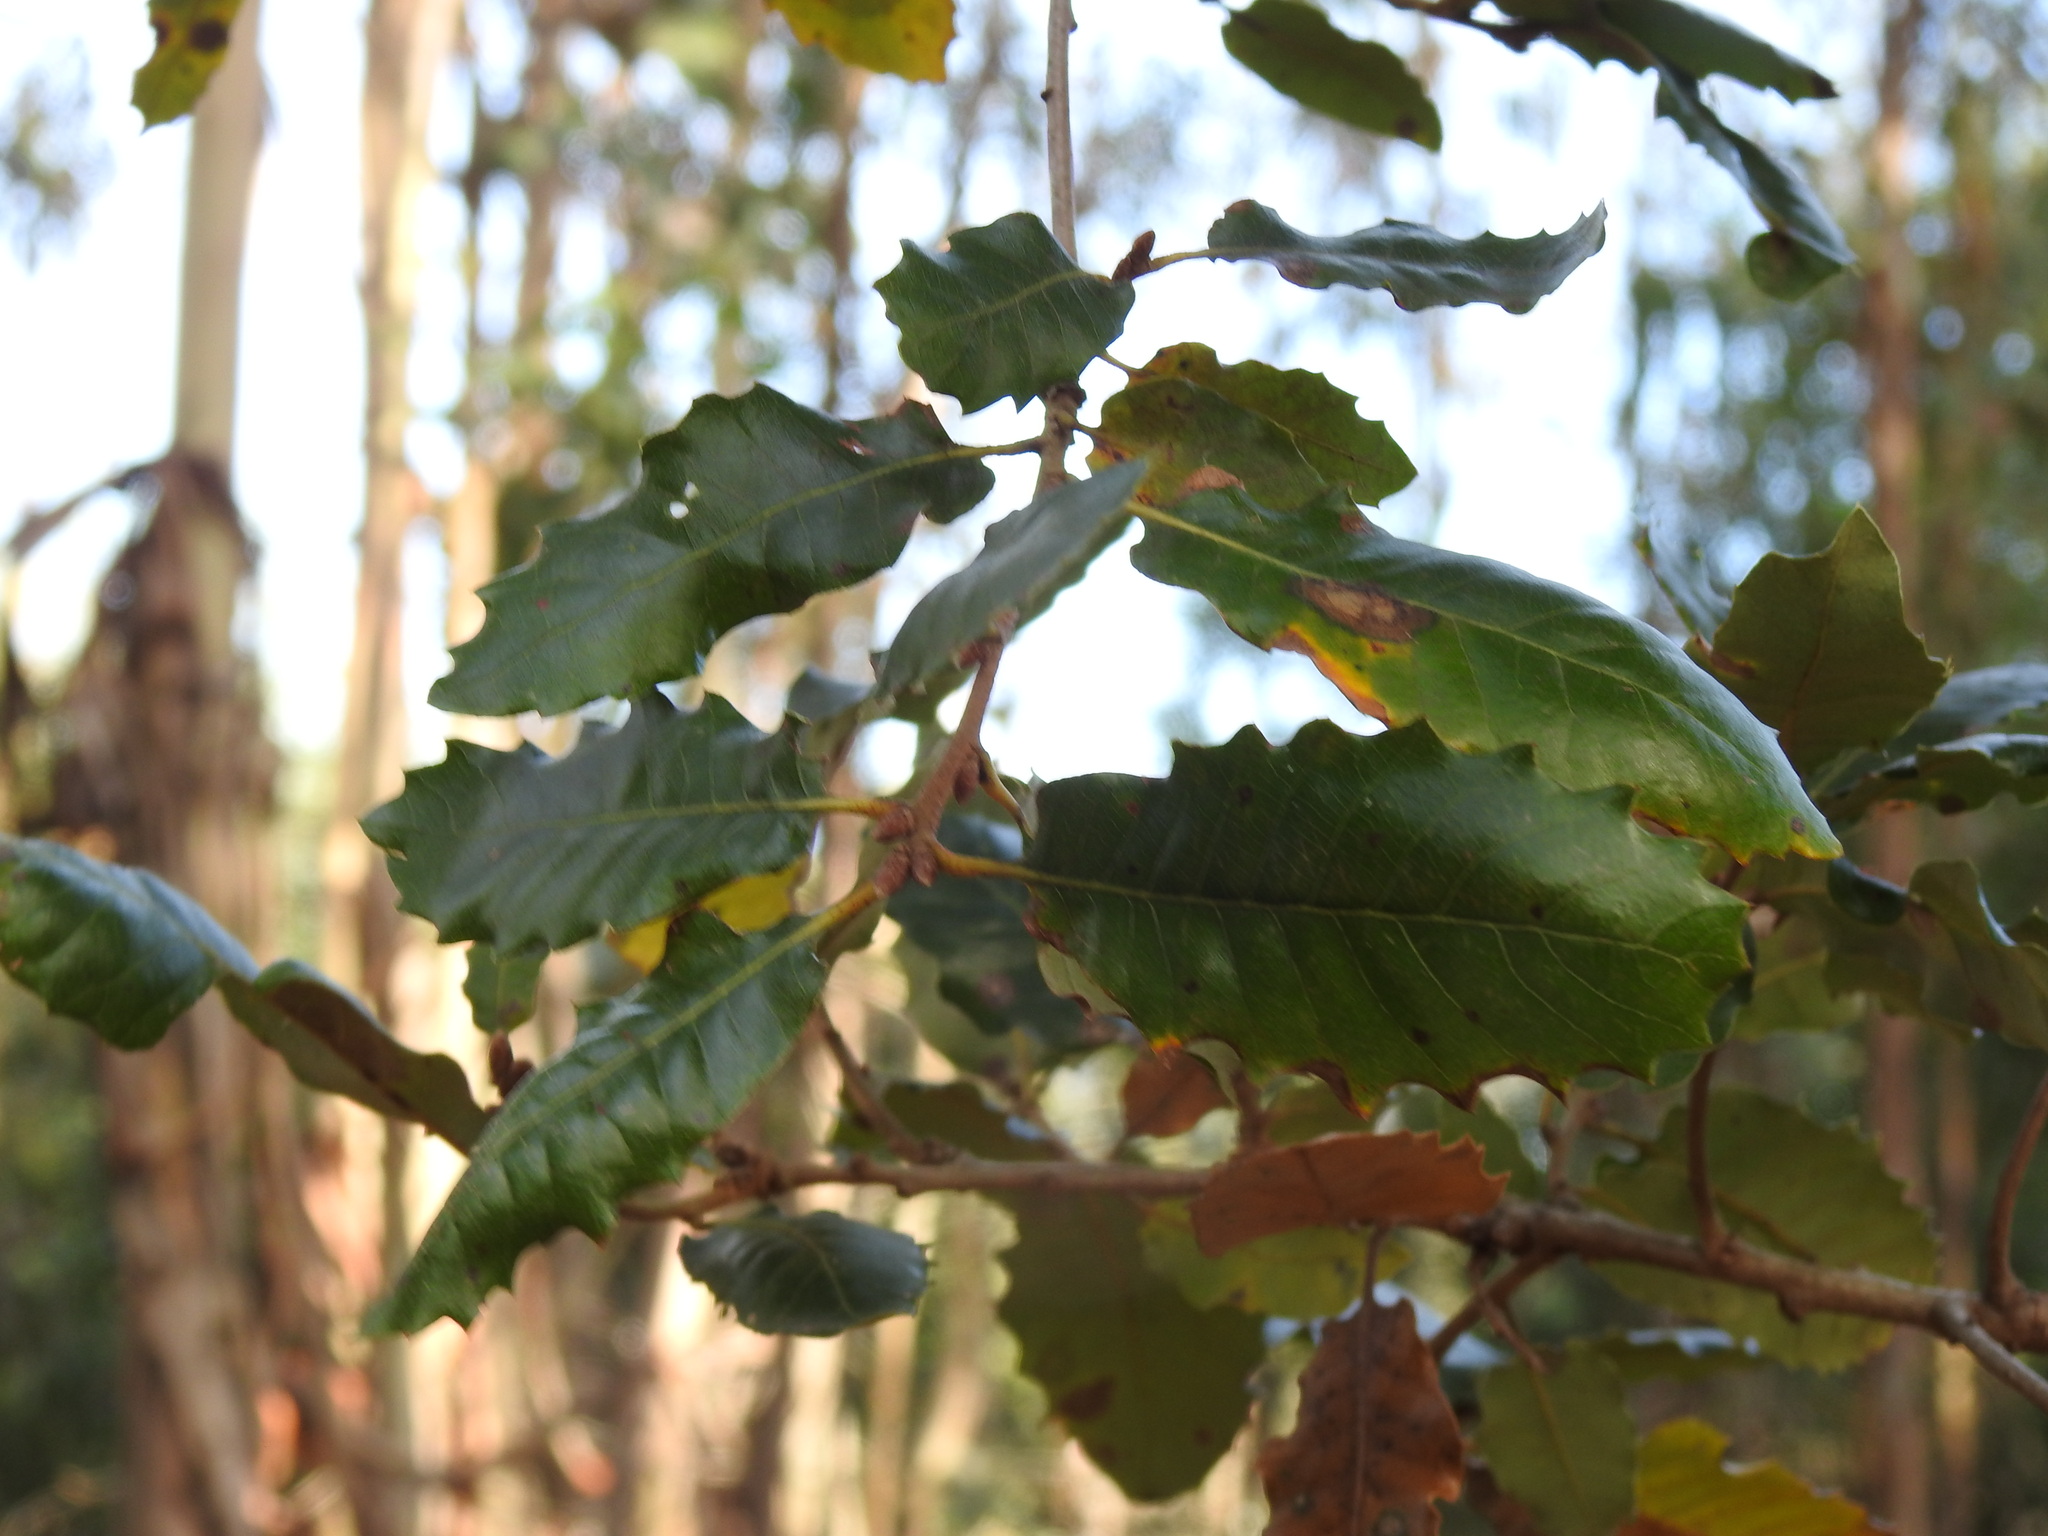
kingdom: Plantae
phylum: Tracheophyta
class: Magnoliopsida
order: Fagales
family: Fagaceae
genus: Quercus
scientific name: Quercus faginea
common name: Gall oak tree
